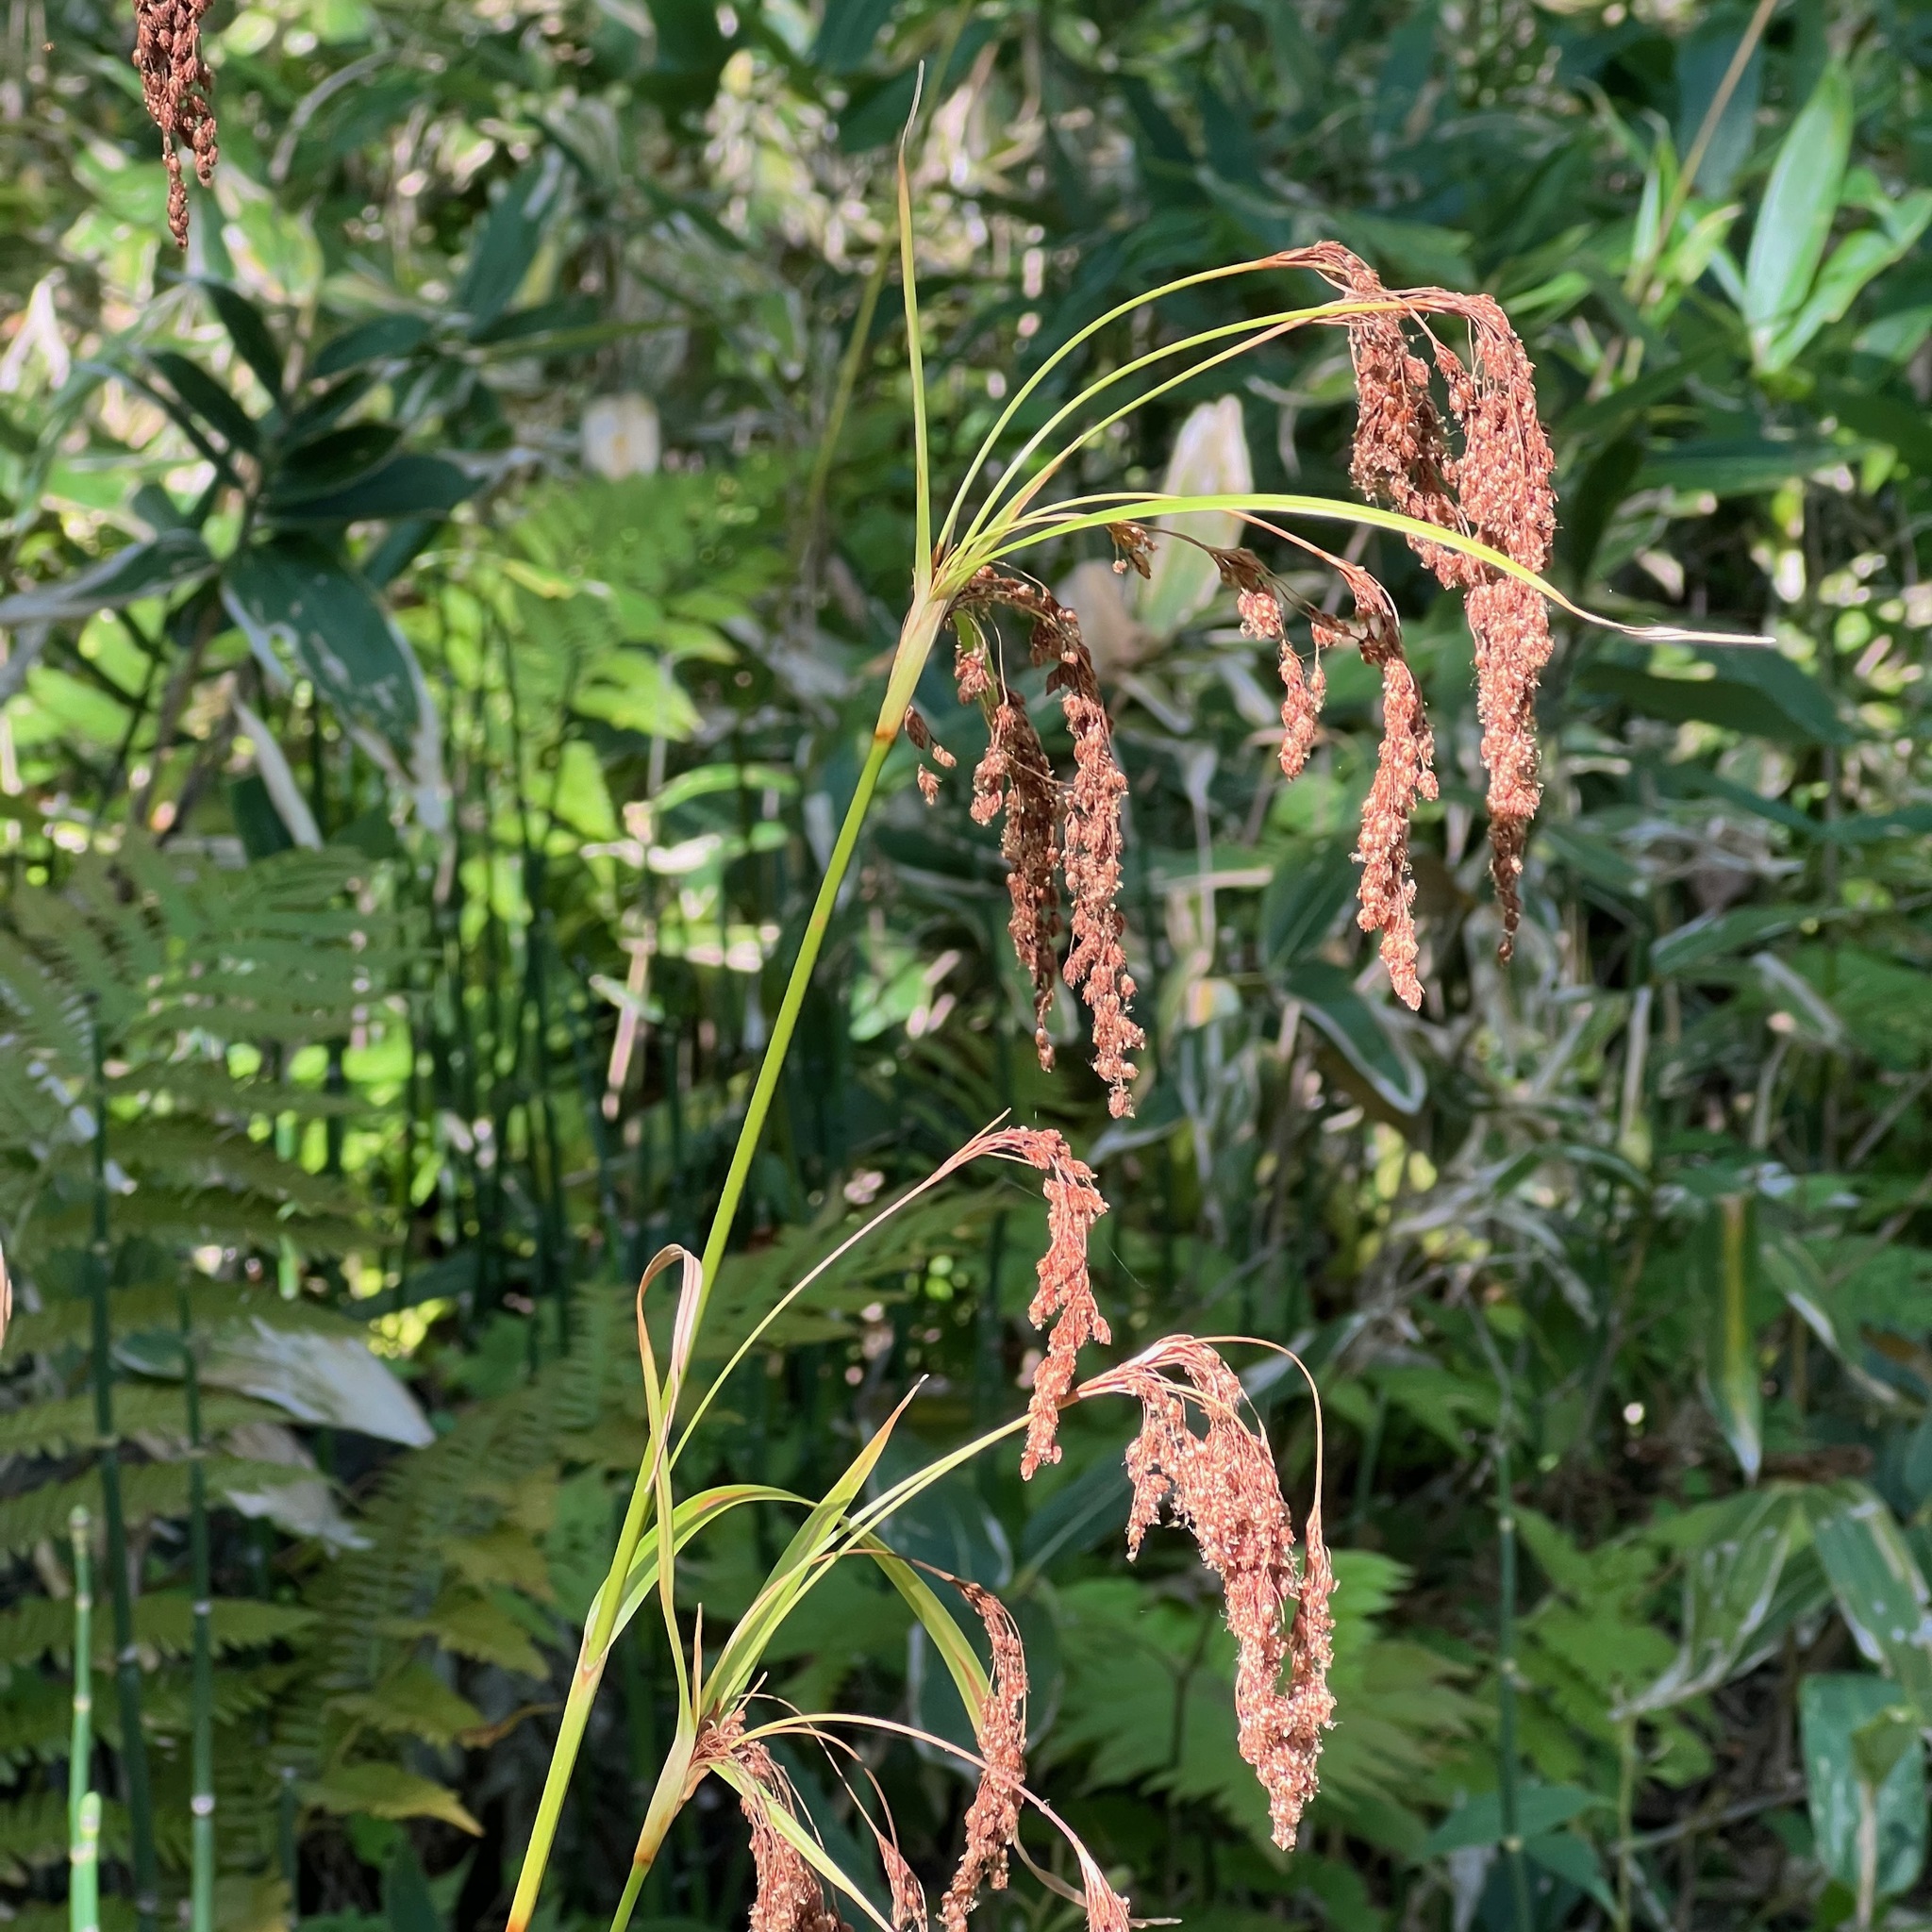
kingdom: Plantae
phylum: Tracheophyta
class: Liliopsida
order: Poales
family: Cyperaceae
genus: Scirpus
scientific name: Scirpus wichurae
